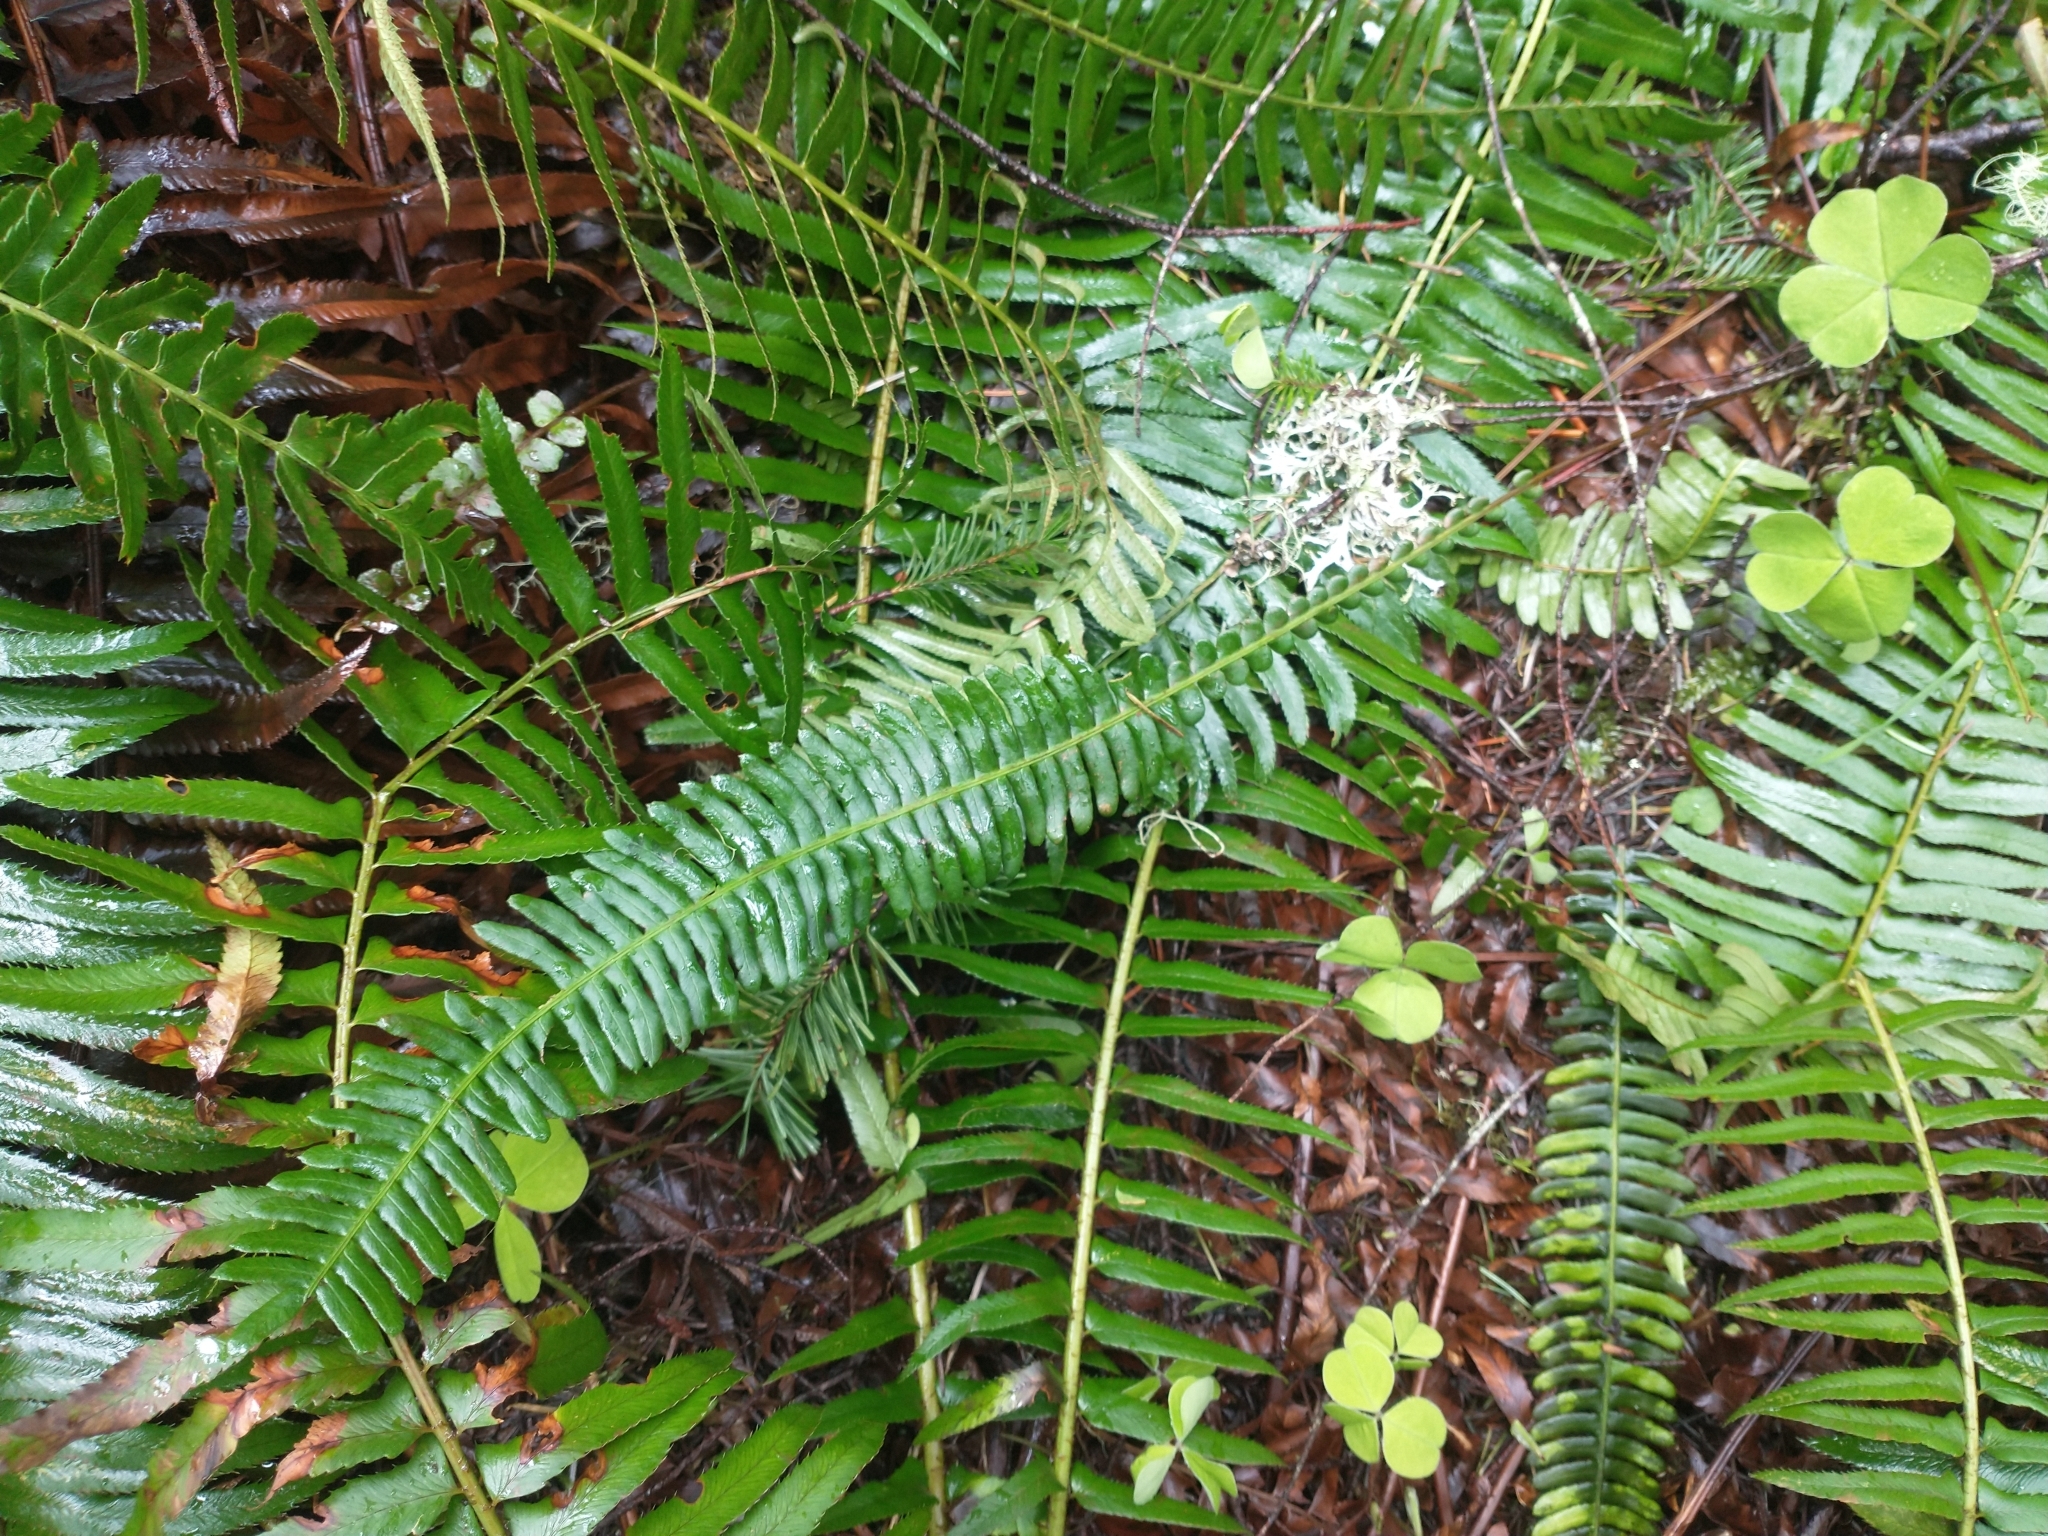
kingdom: Plantae
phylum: Tracheophyta
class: Polypodiopsida
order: Polypodiales
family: Blechnaceae
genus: Struthiopteris
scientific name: Struthiopteris spicant
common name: Deer fern
